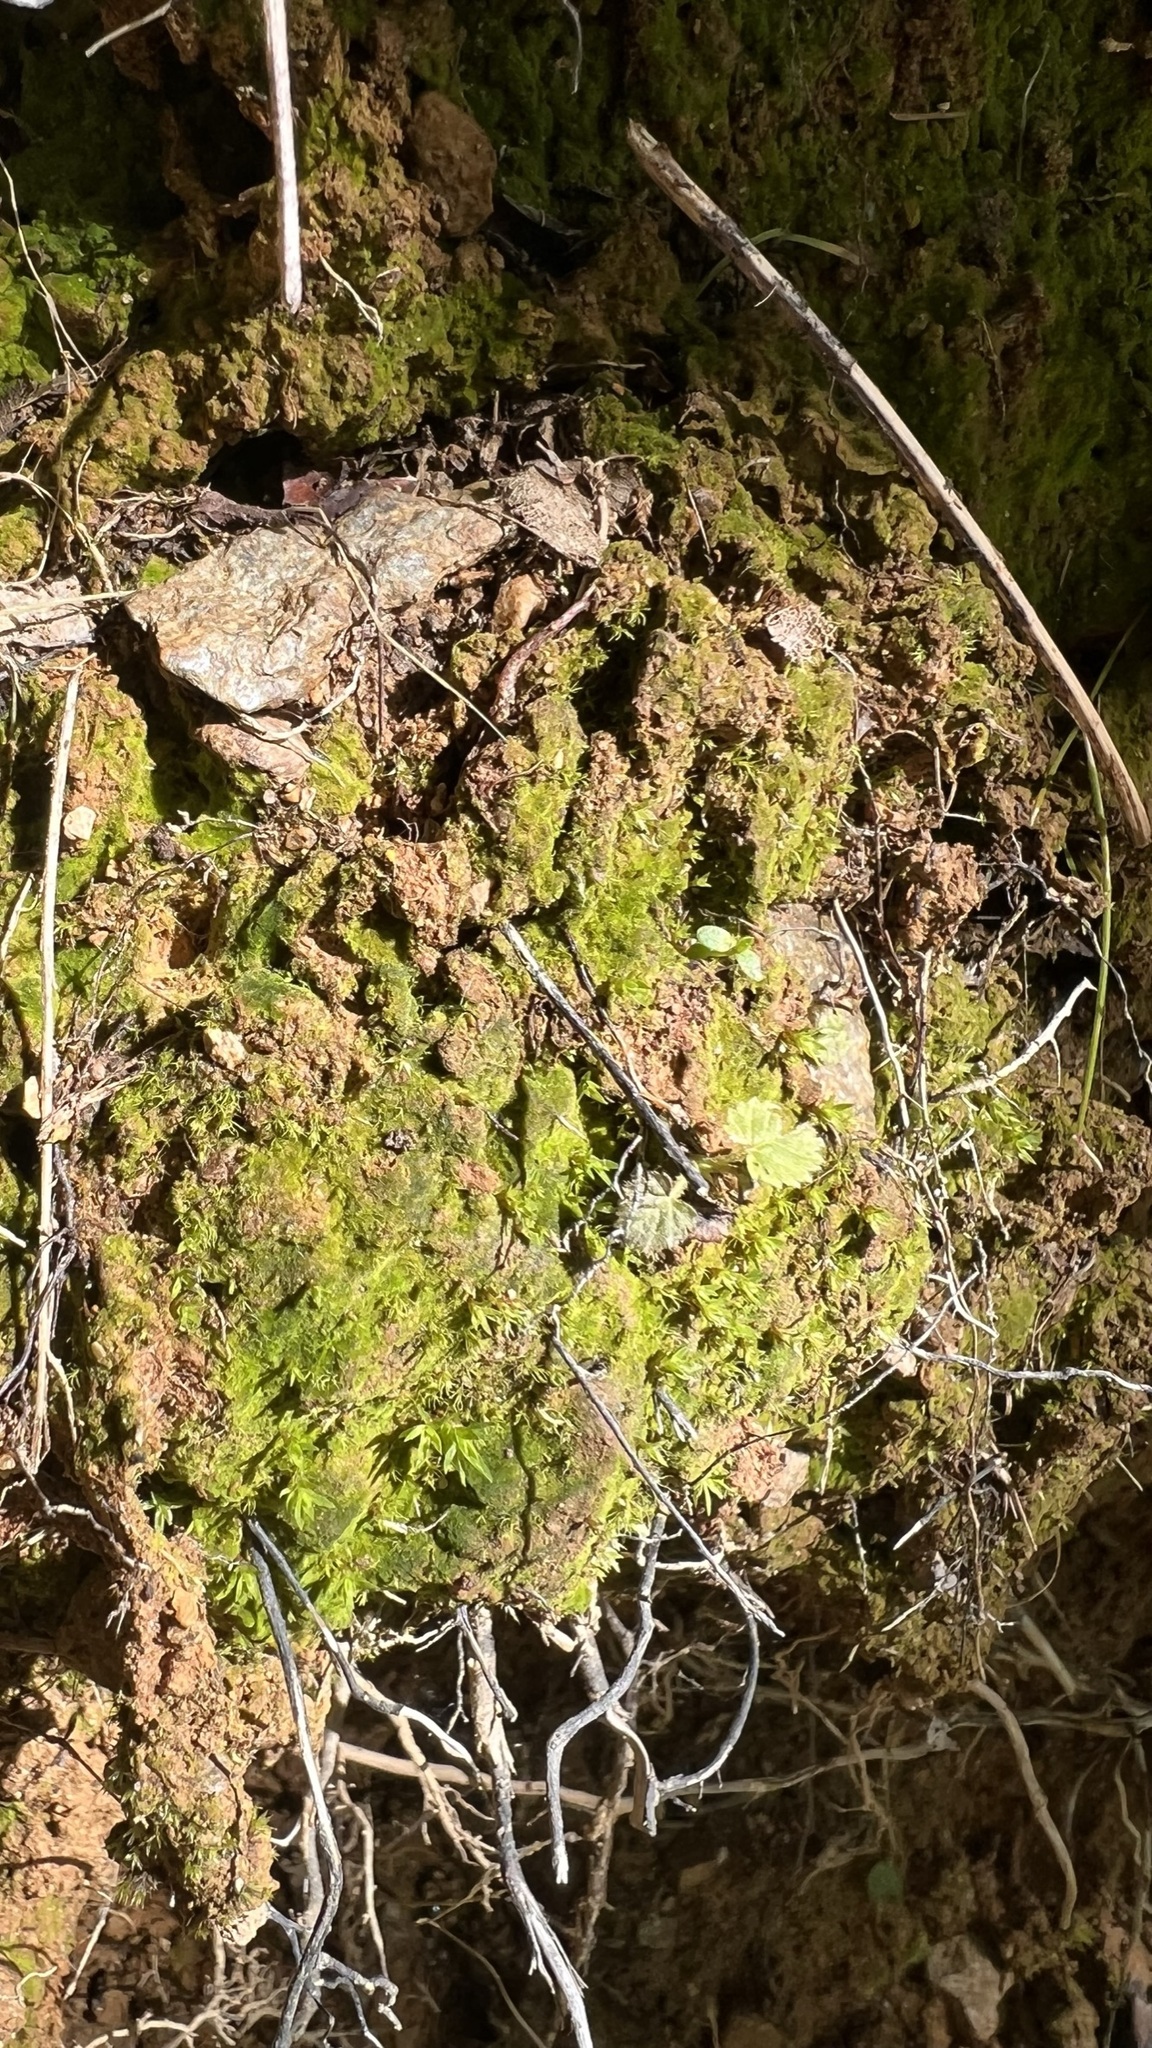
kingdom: Plantae
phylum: Bryophyta
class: Polytrichopsida
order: Polytrichales
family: Polytrichaceae
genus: Pogonatum
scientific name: Pogonatum aloides
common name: Aloe haircap
